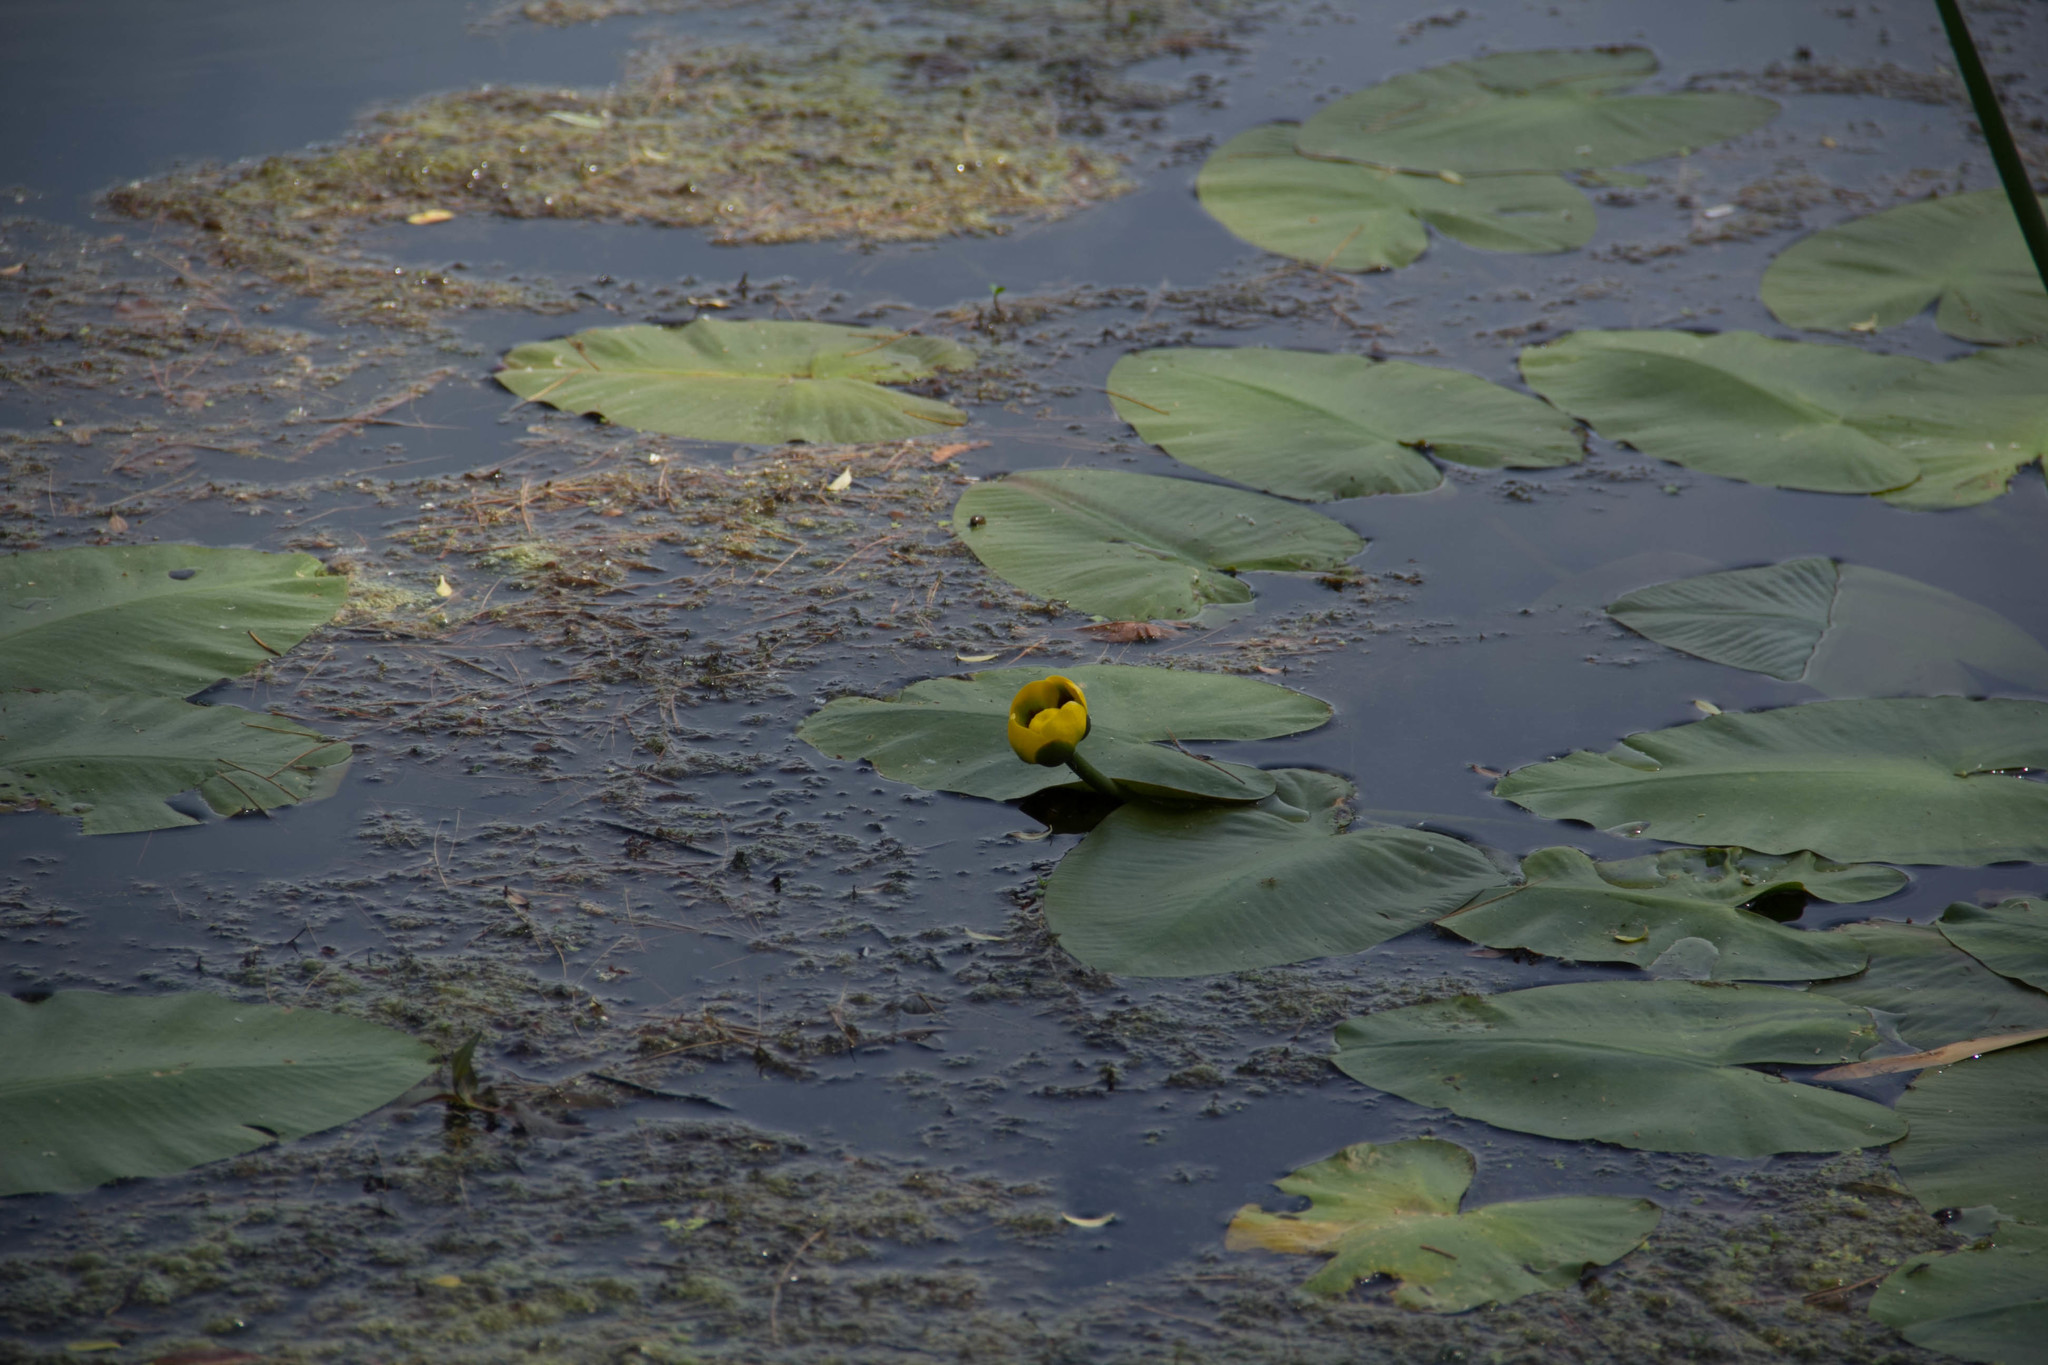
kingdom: Plantae
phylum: Tracheophyta
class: Magnoliopsida
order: Nymphaeales
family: Nymphaeaceae
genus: Nuphar
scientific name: Nuphar variegata
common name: Beaver-root
